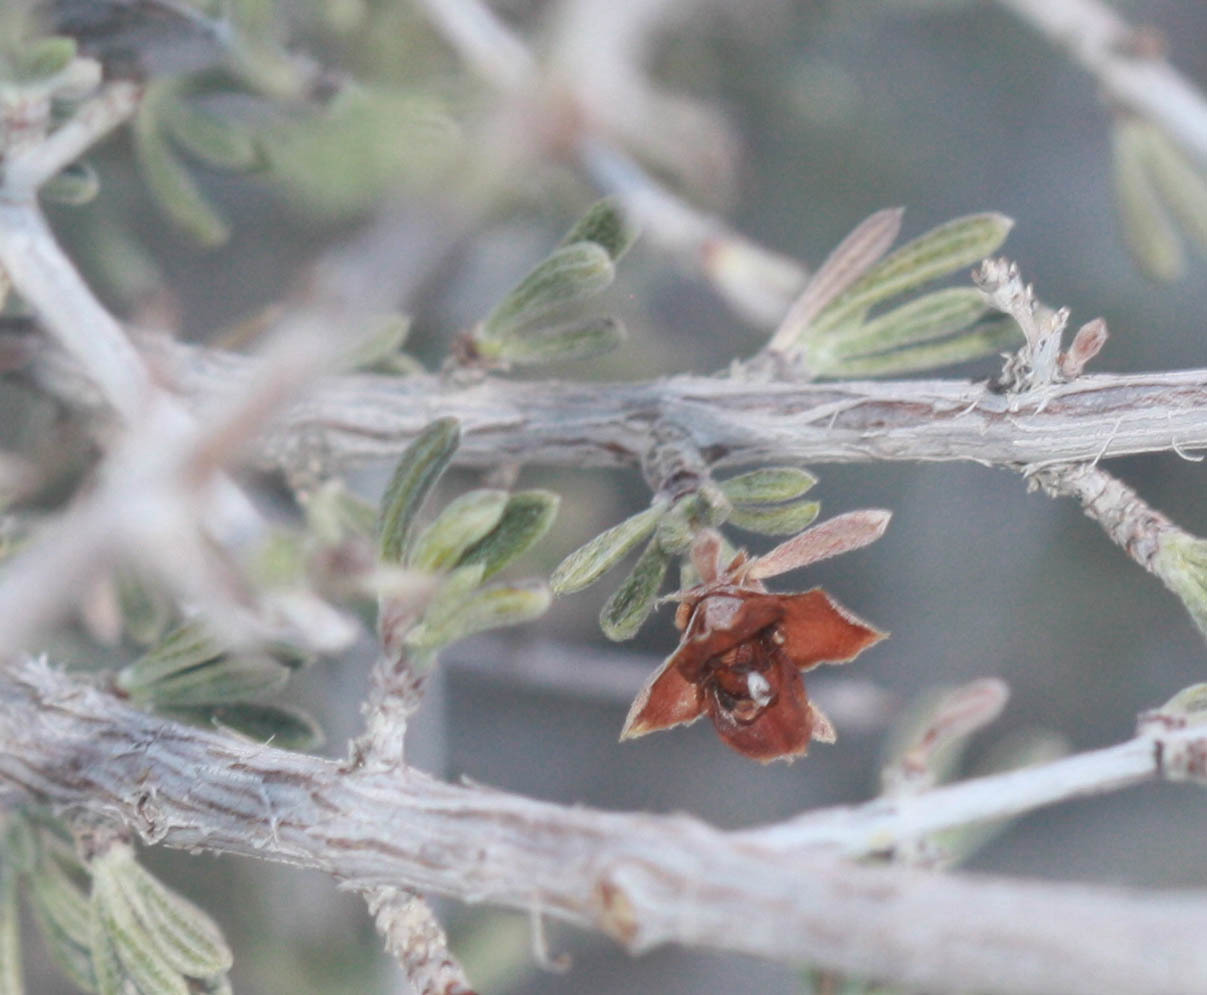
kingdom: Plantae
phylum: Tracheophyta
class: Magnoliopsida
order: Rosales
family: Rosaceae
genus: Coleogyne
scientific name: Coleogyne ramosissima
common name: Blackbrush
